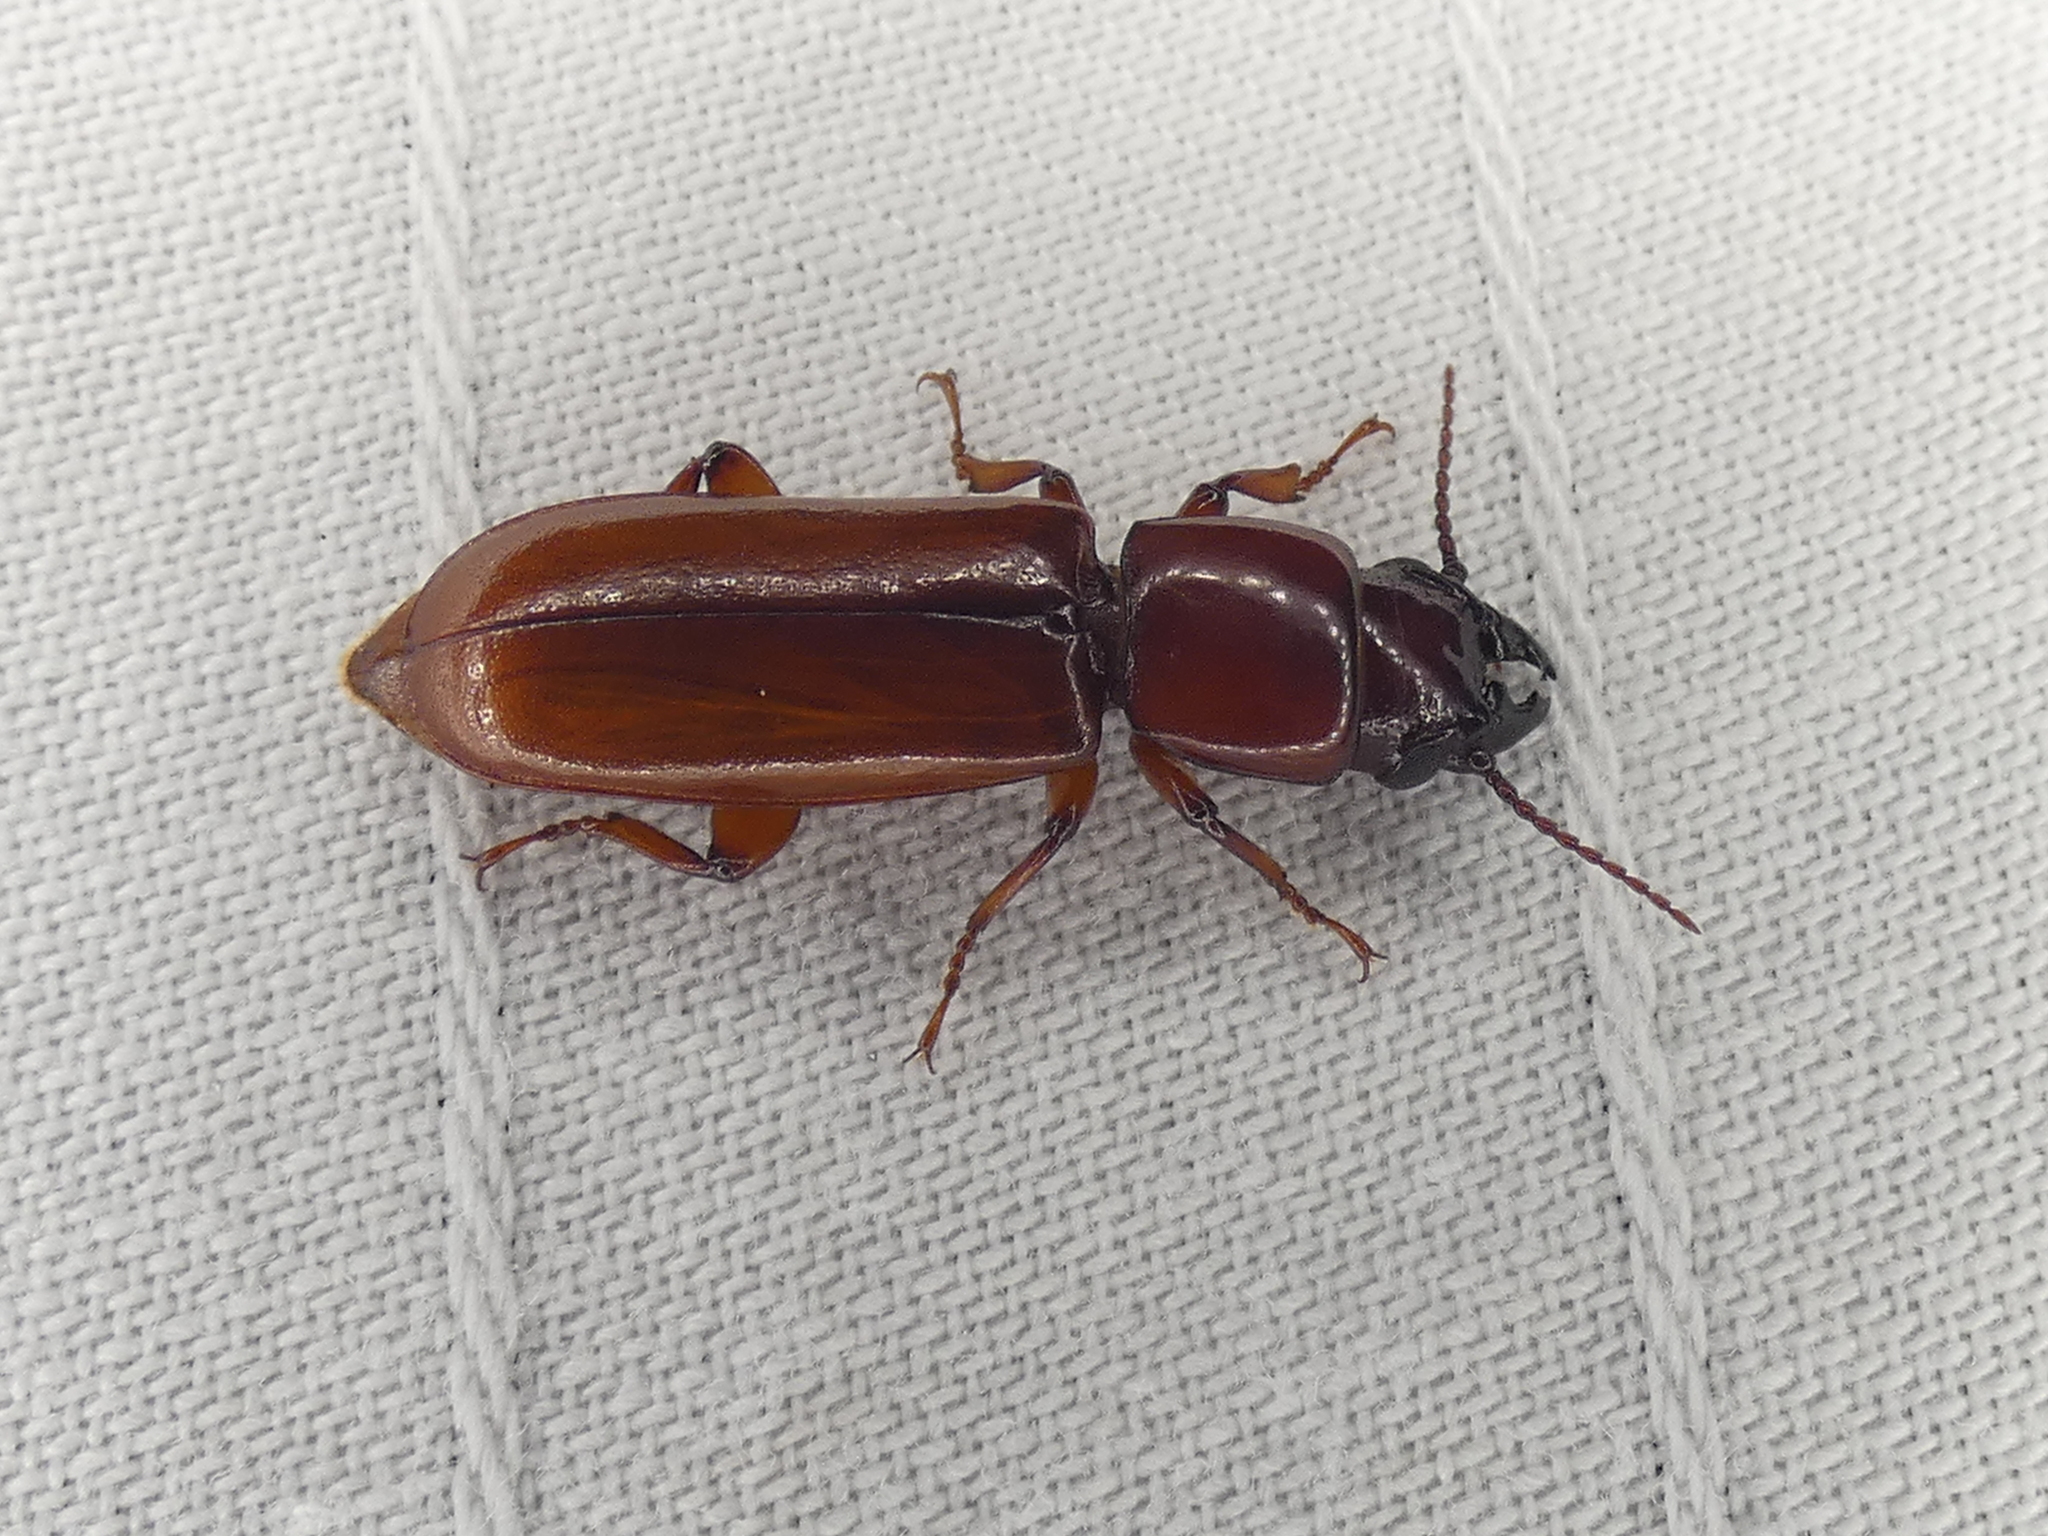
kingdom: Animalia
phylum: Arthropoda
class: Insecta
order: Coleoptera
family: Cerambycidae
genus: Parandra
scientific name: Parandra polita
